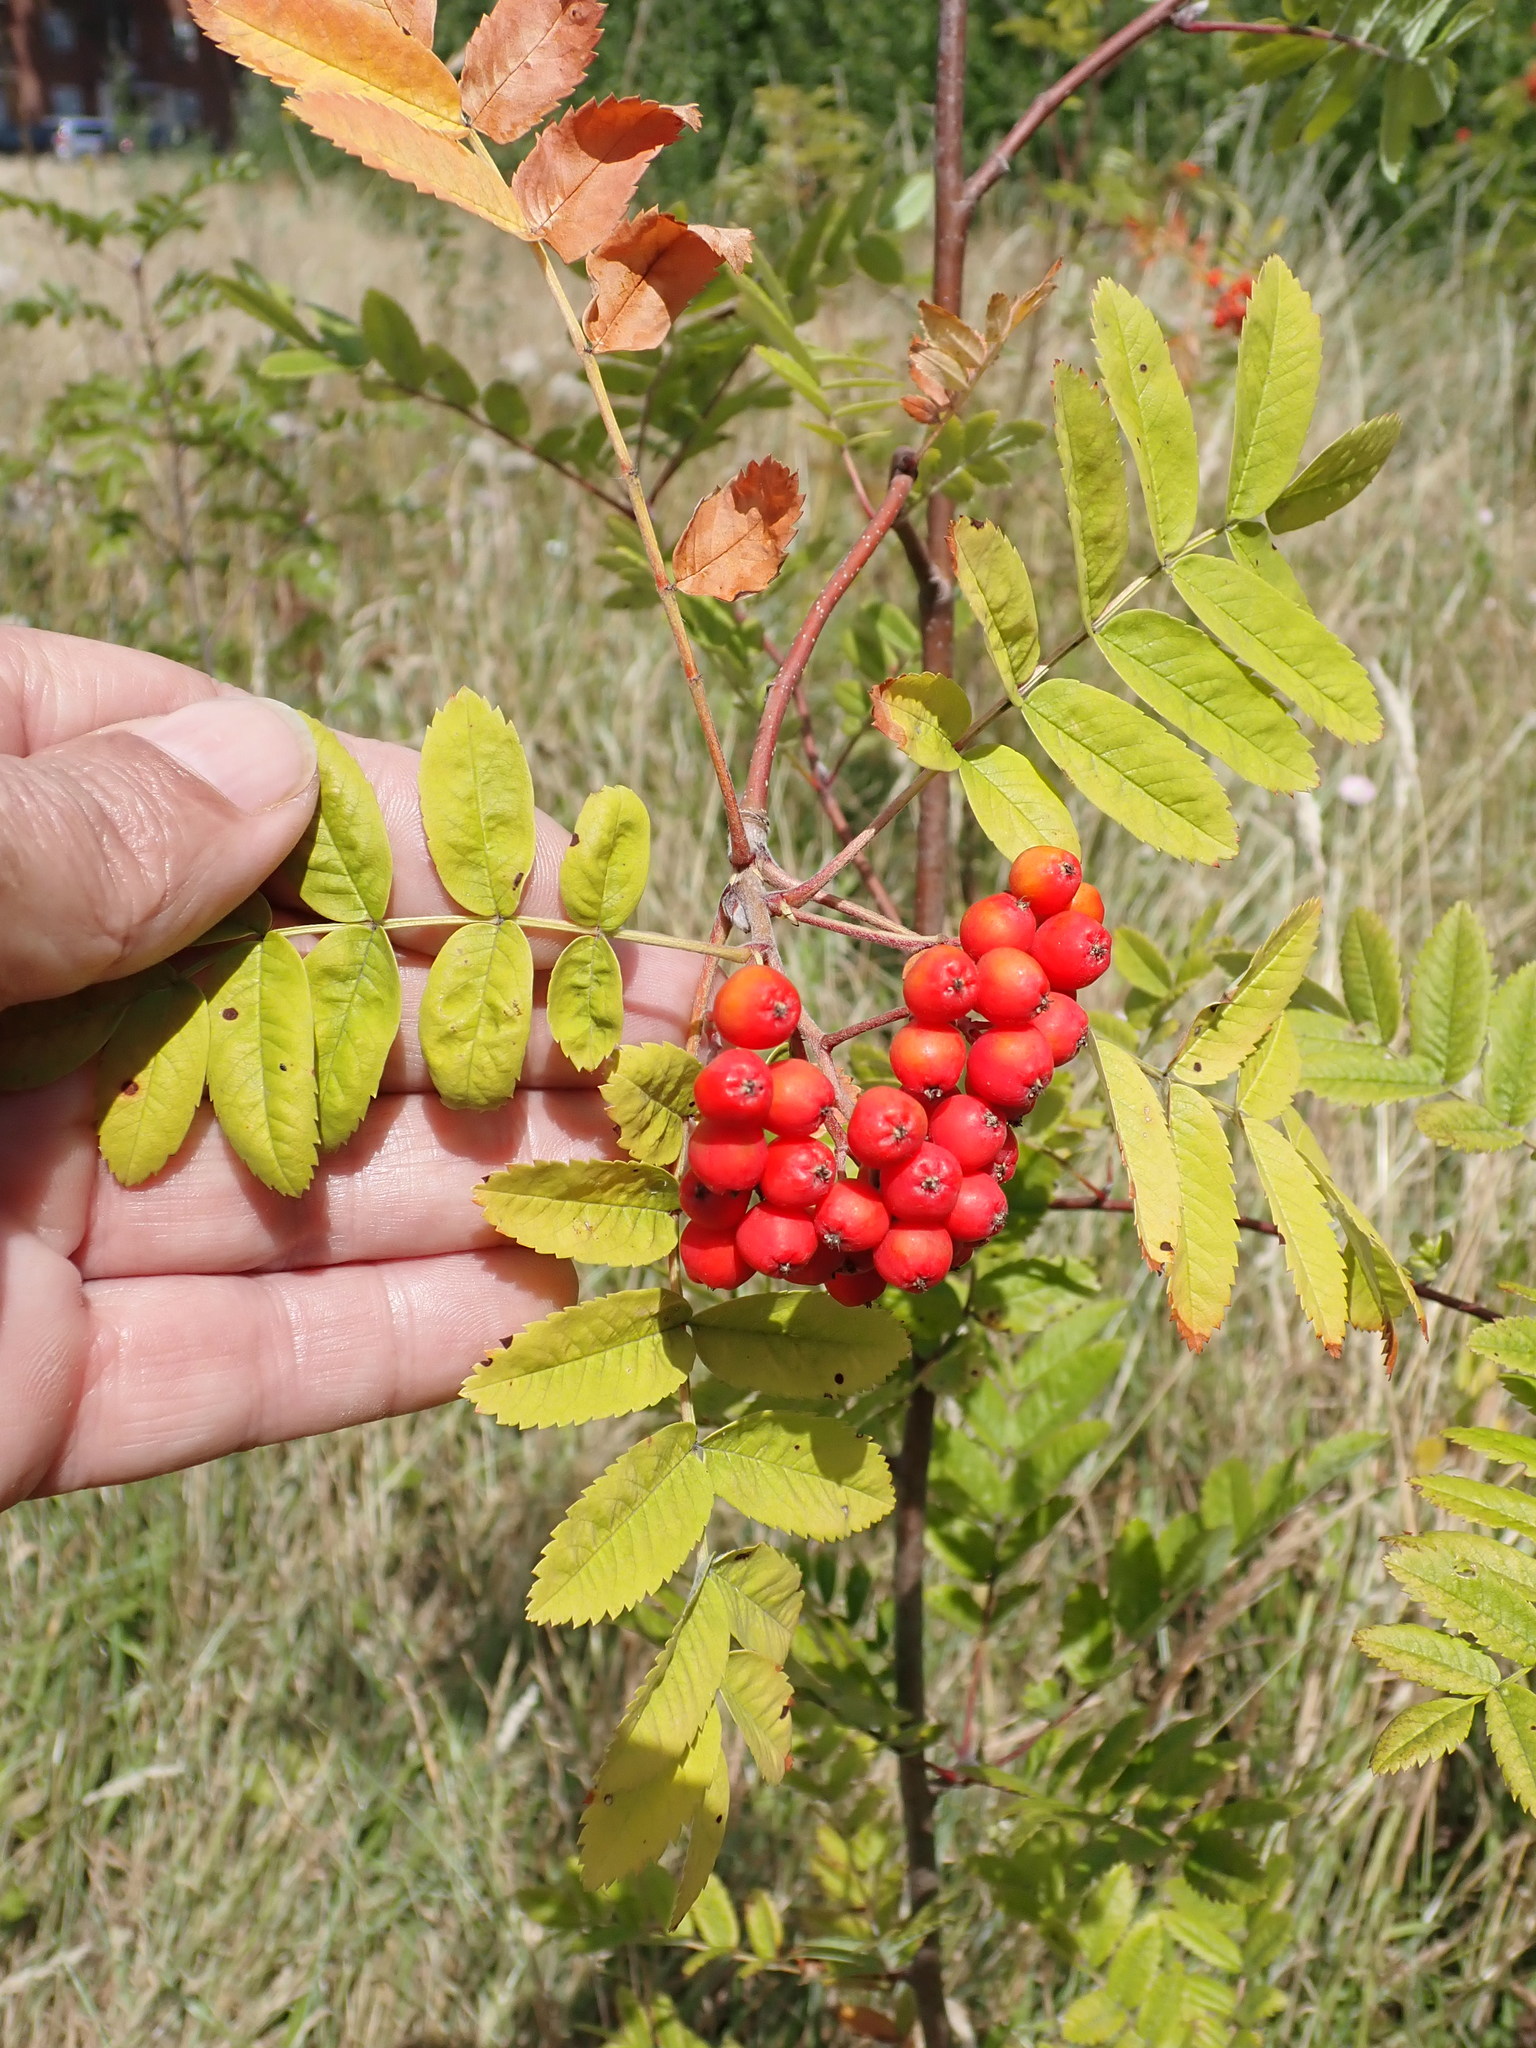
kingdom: Plantae
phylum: Tracheophyta
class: Magnoliopsida
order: Rosales
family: Rosaceae
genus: Sorbus
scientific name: Sorbus aucuparia
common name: Rowan
